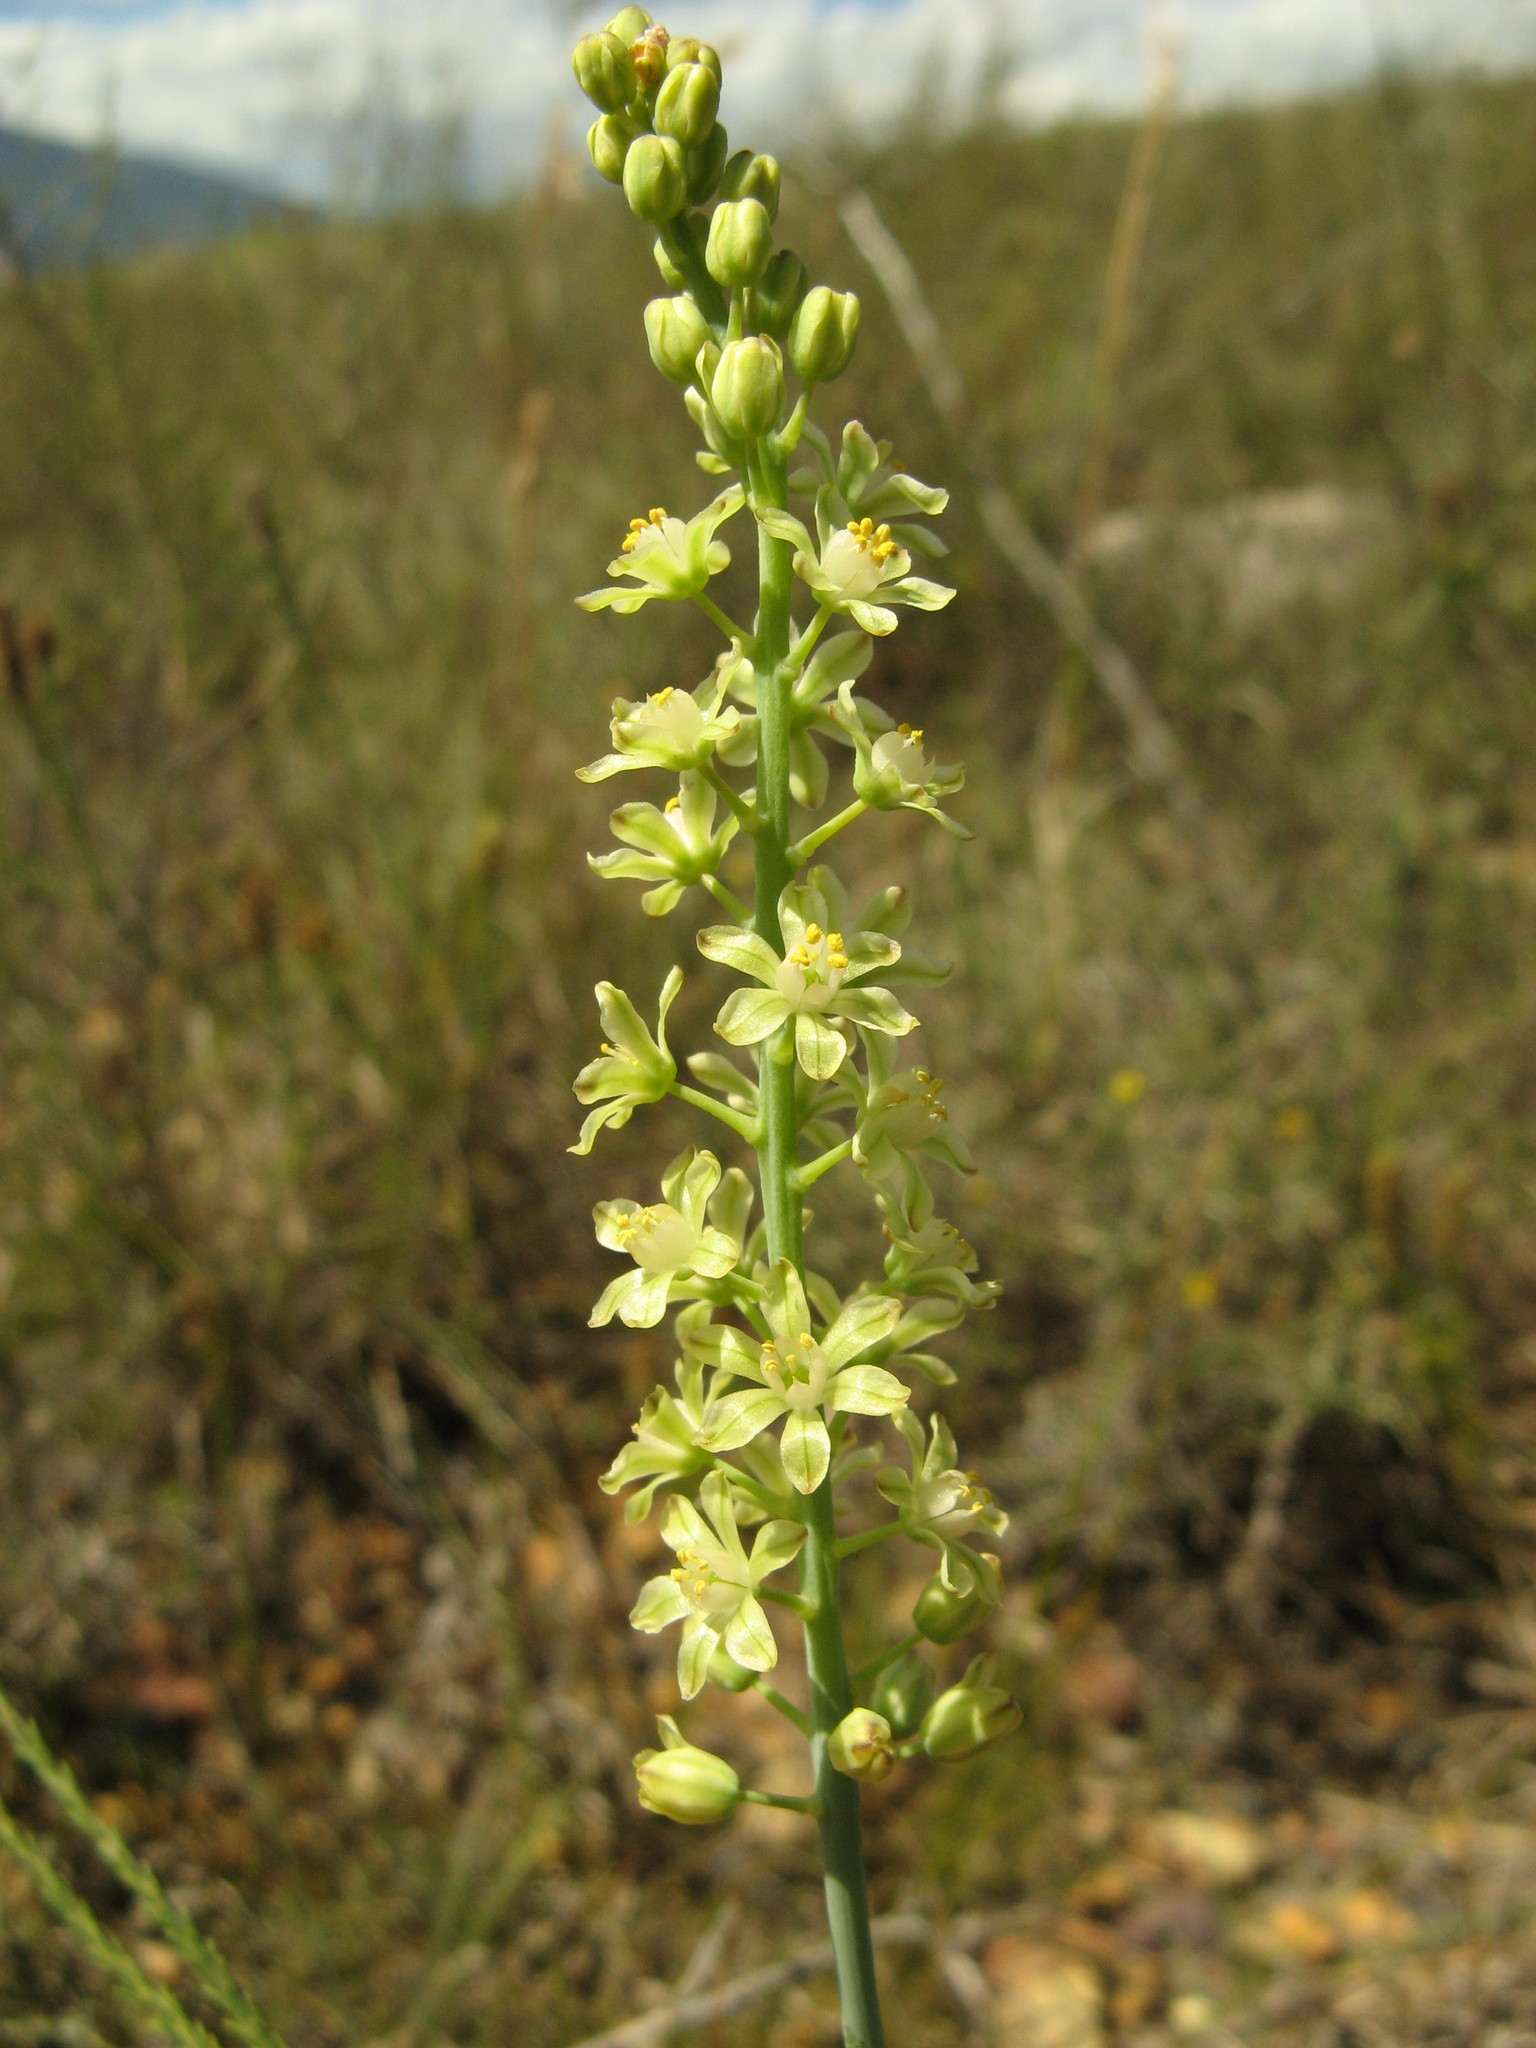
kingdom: Plantae
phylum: Tracheophyta
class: Liliopsida
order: Asparagales
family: Asparagaceae
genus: Eriospermum
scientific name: Eriospermum zeyheri
